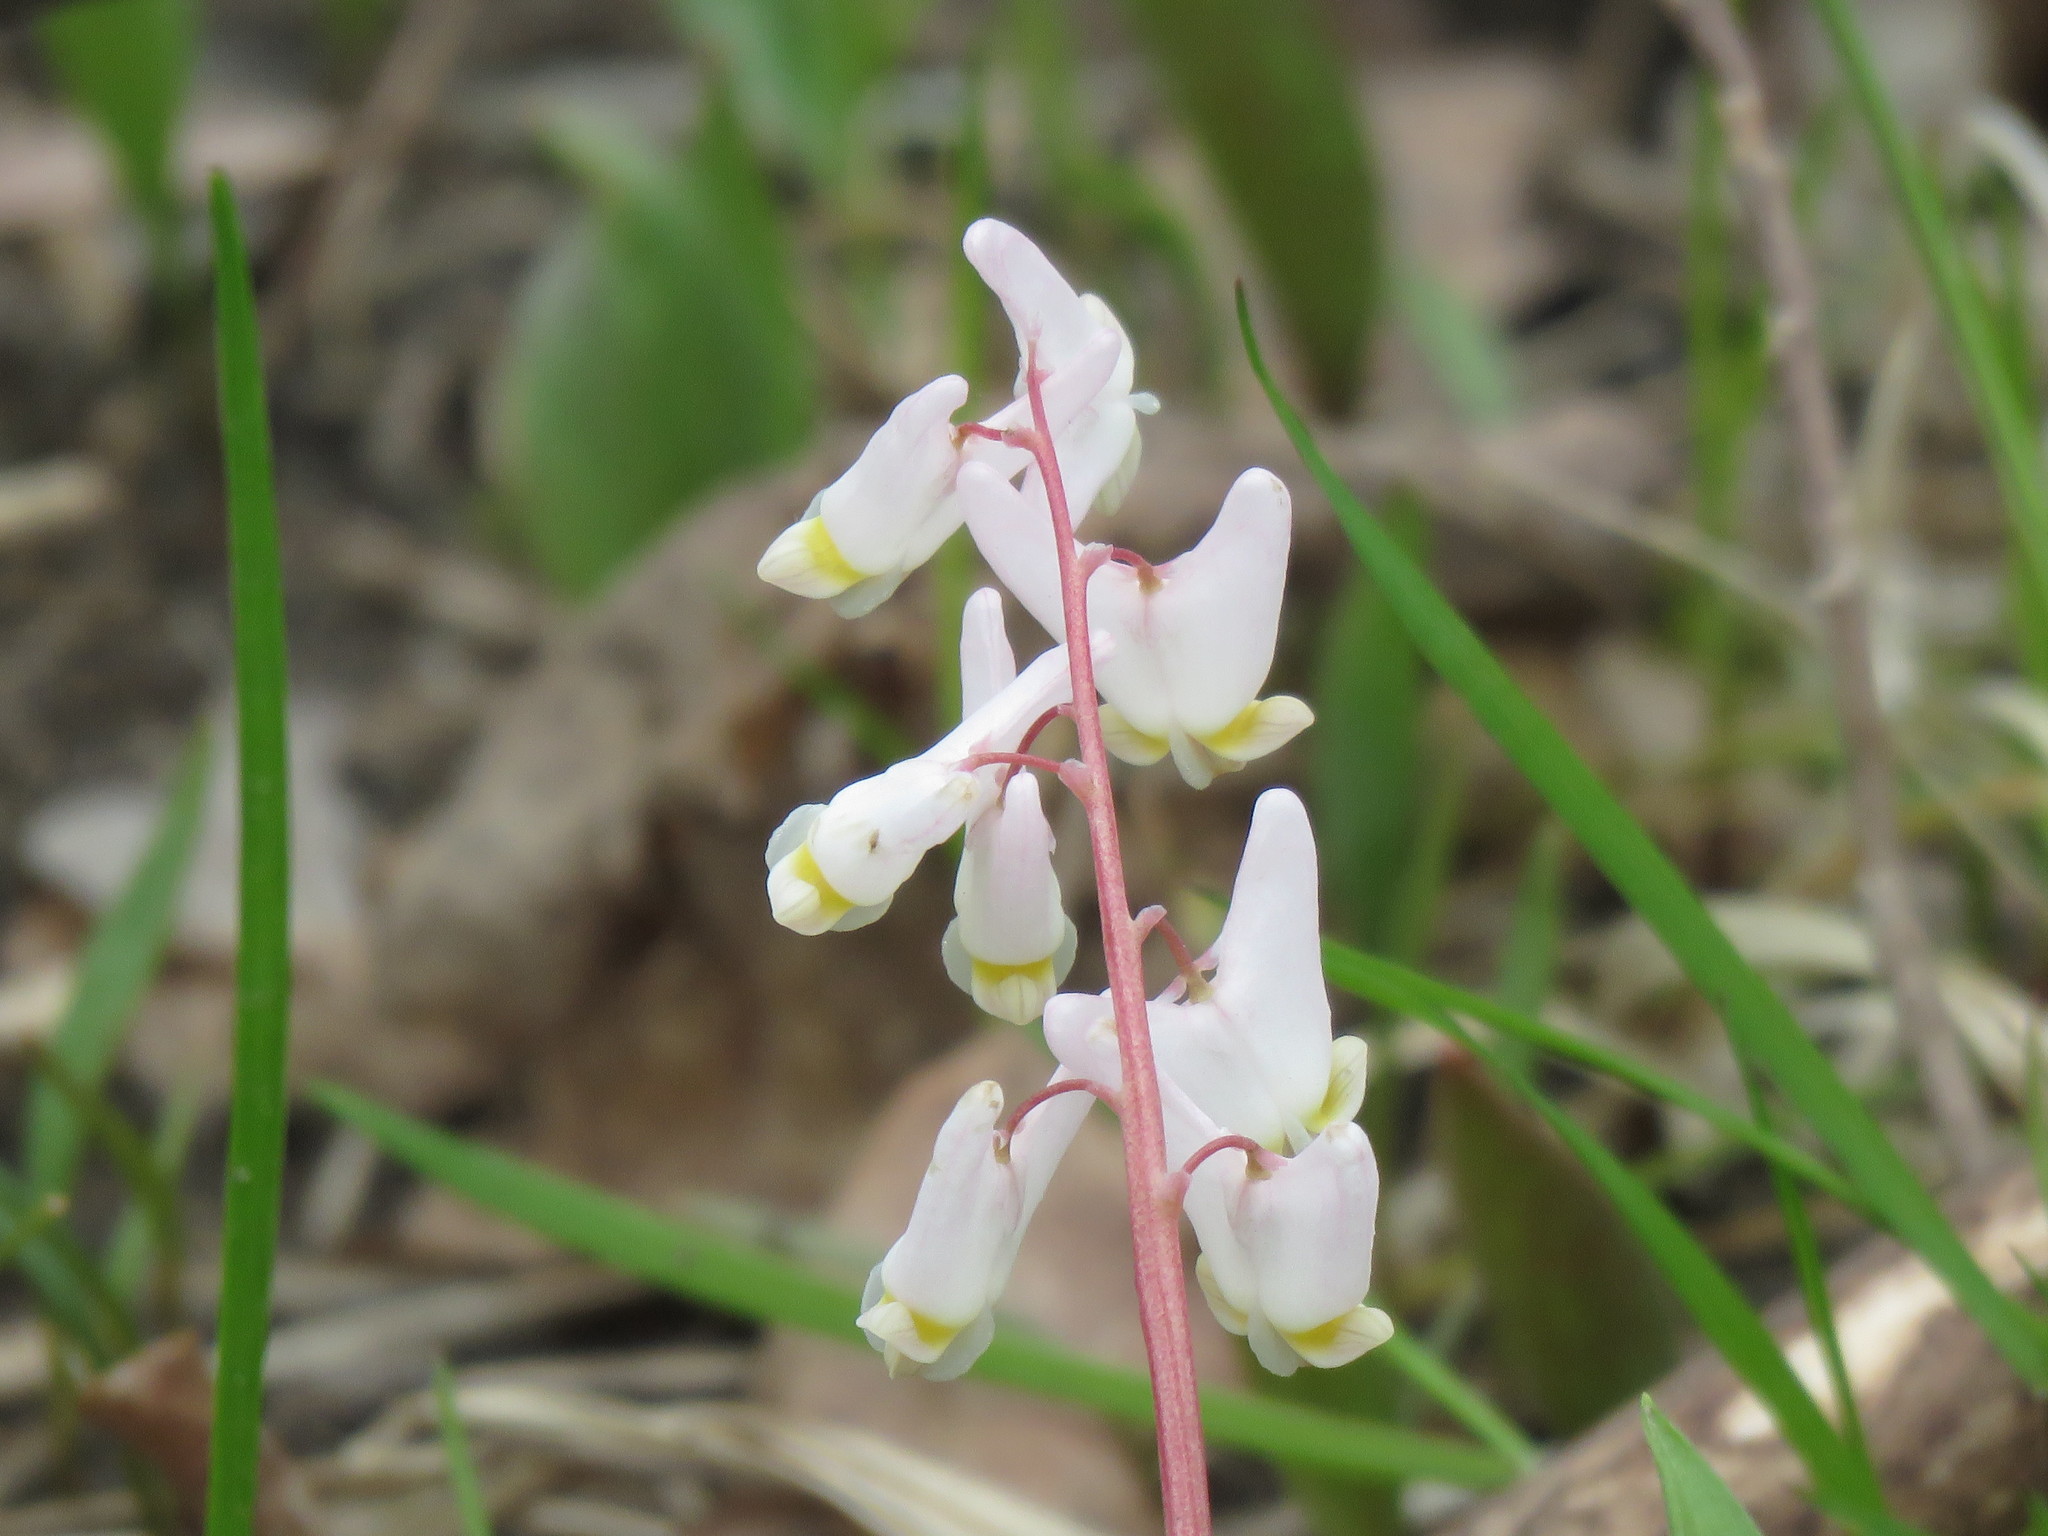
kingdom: Plantae
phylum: Tracheophyta
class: Magnoliopsida
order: Ranunculales
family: Papaveraceae
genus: Dicentra
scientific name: Dicentra cucullaria
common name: Dutchman's breeches
